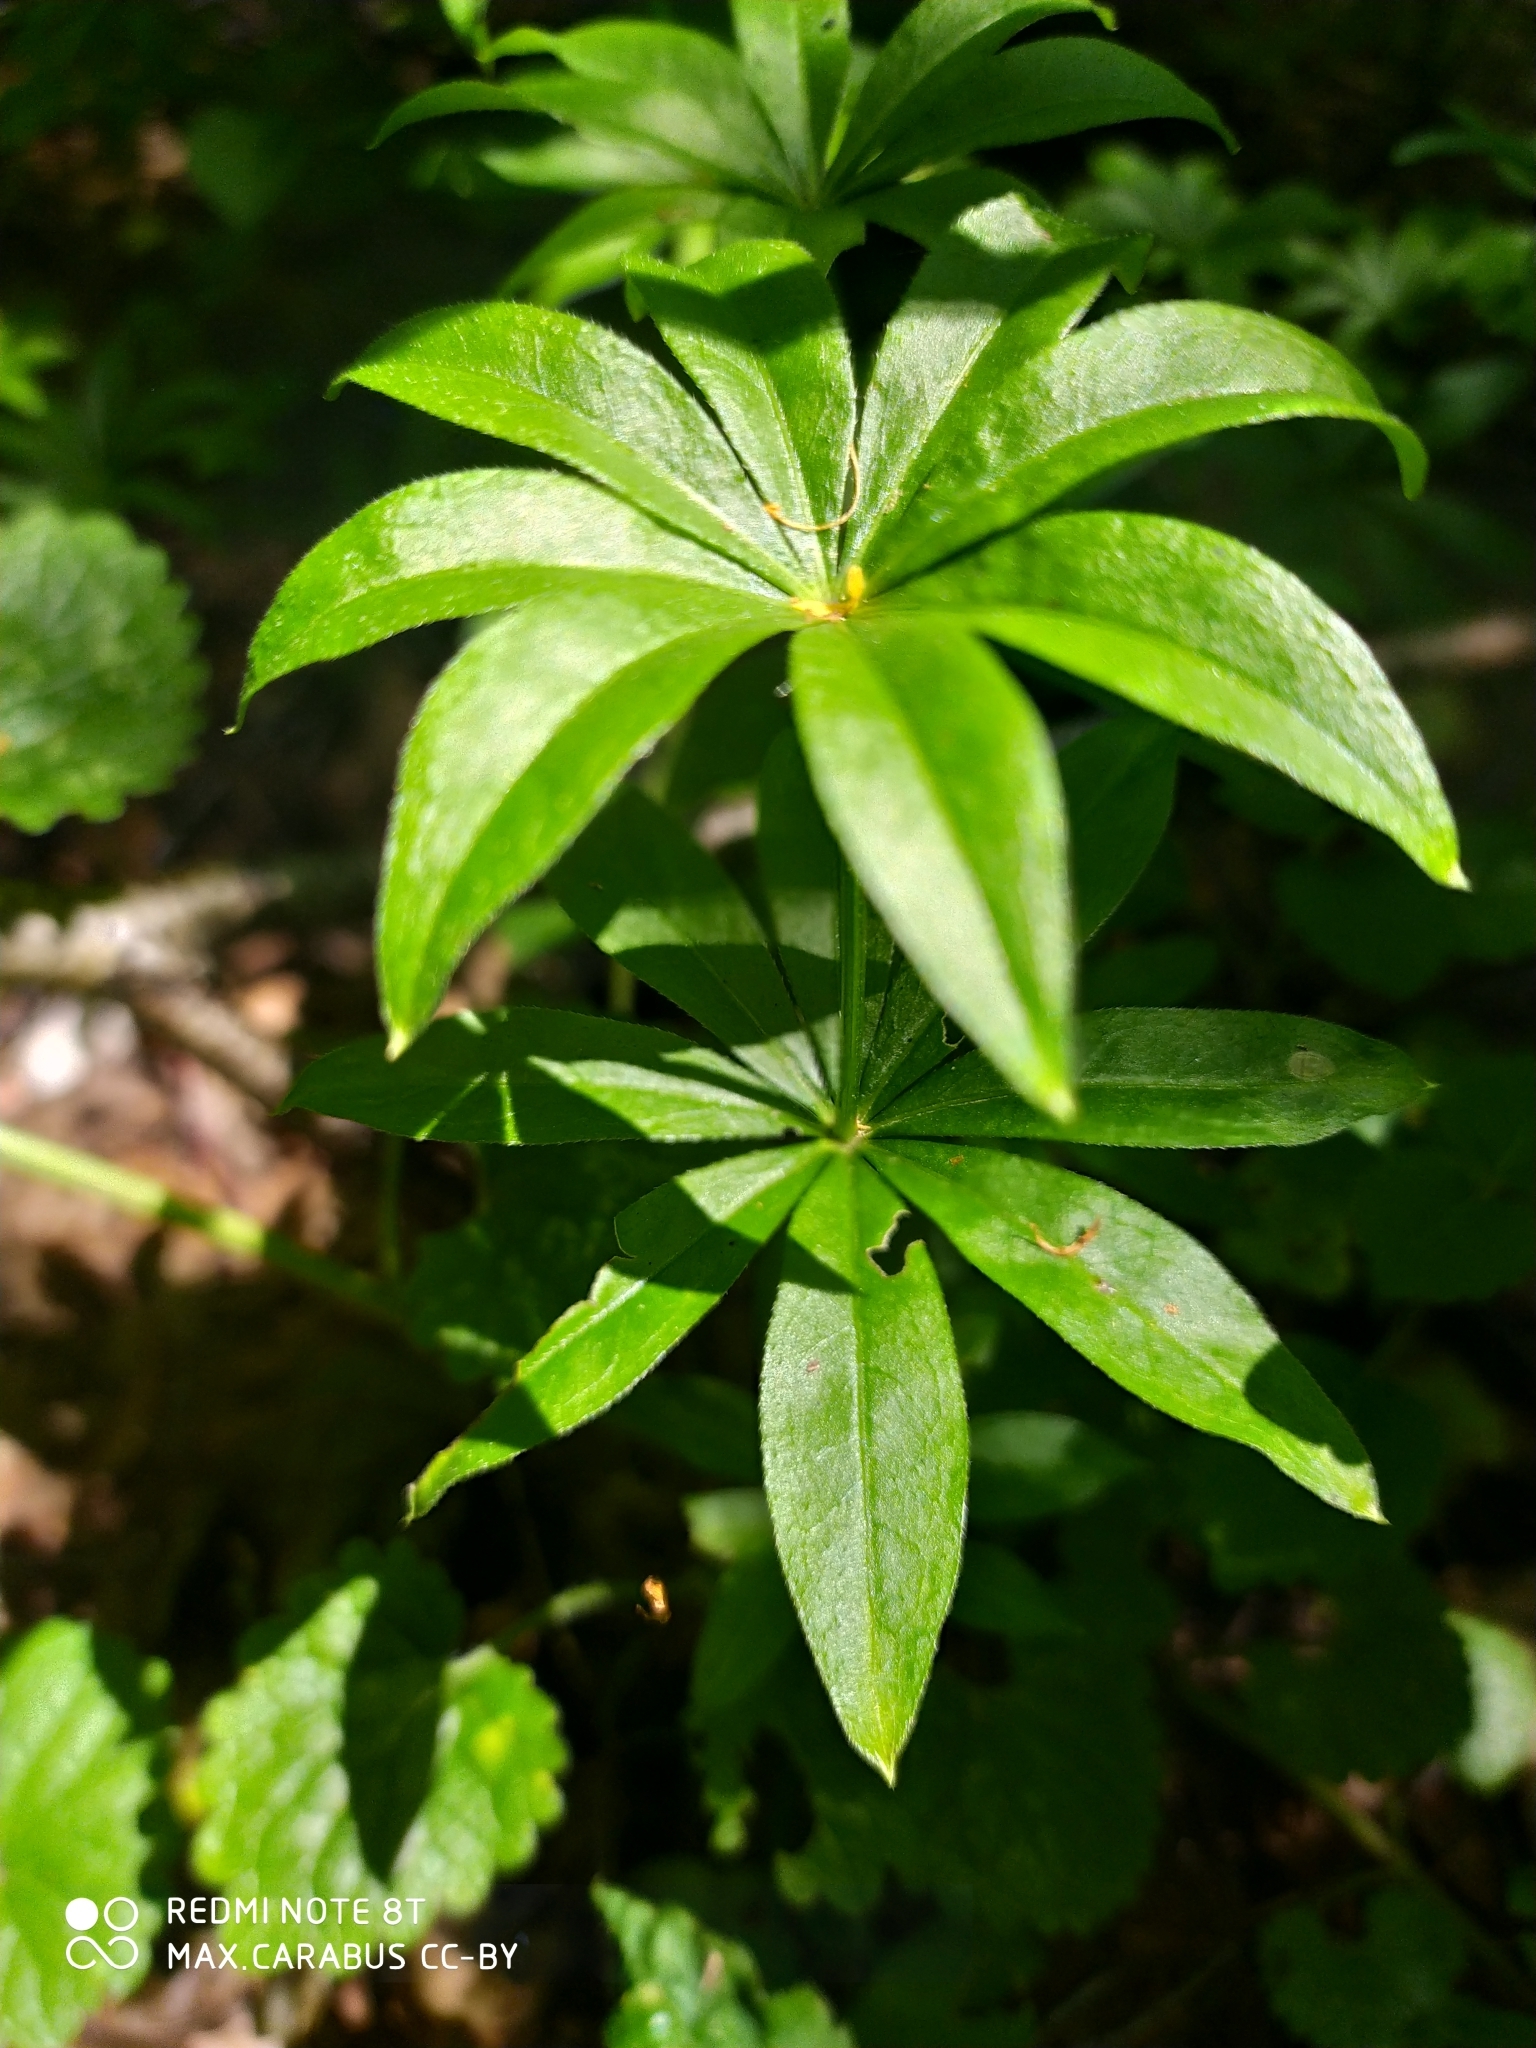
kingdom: Plantae
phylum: Tracheophyta
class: Magnoliopsida
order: Gentianales
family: Rubiaceae
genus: Galium
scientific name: Galium odoratum
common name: Sweet woodruff
